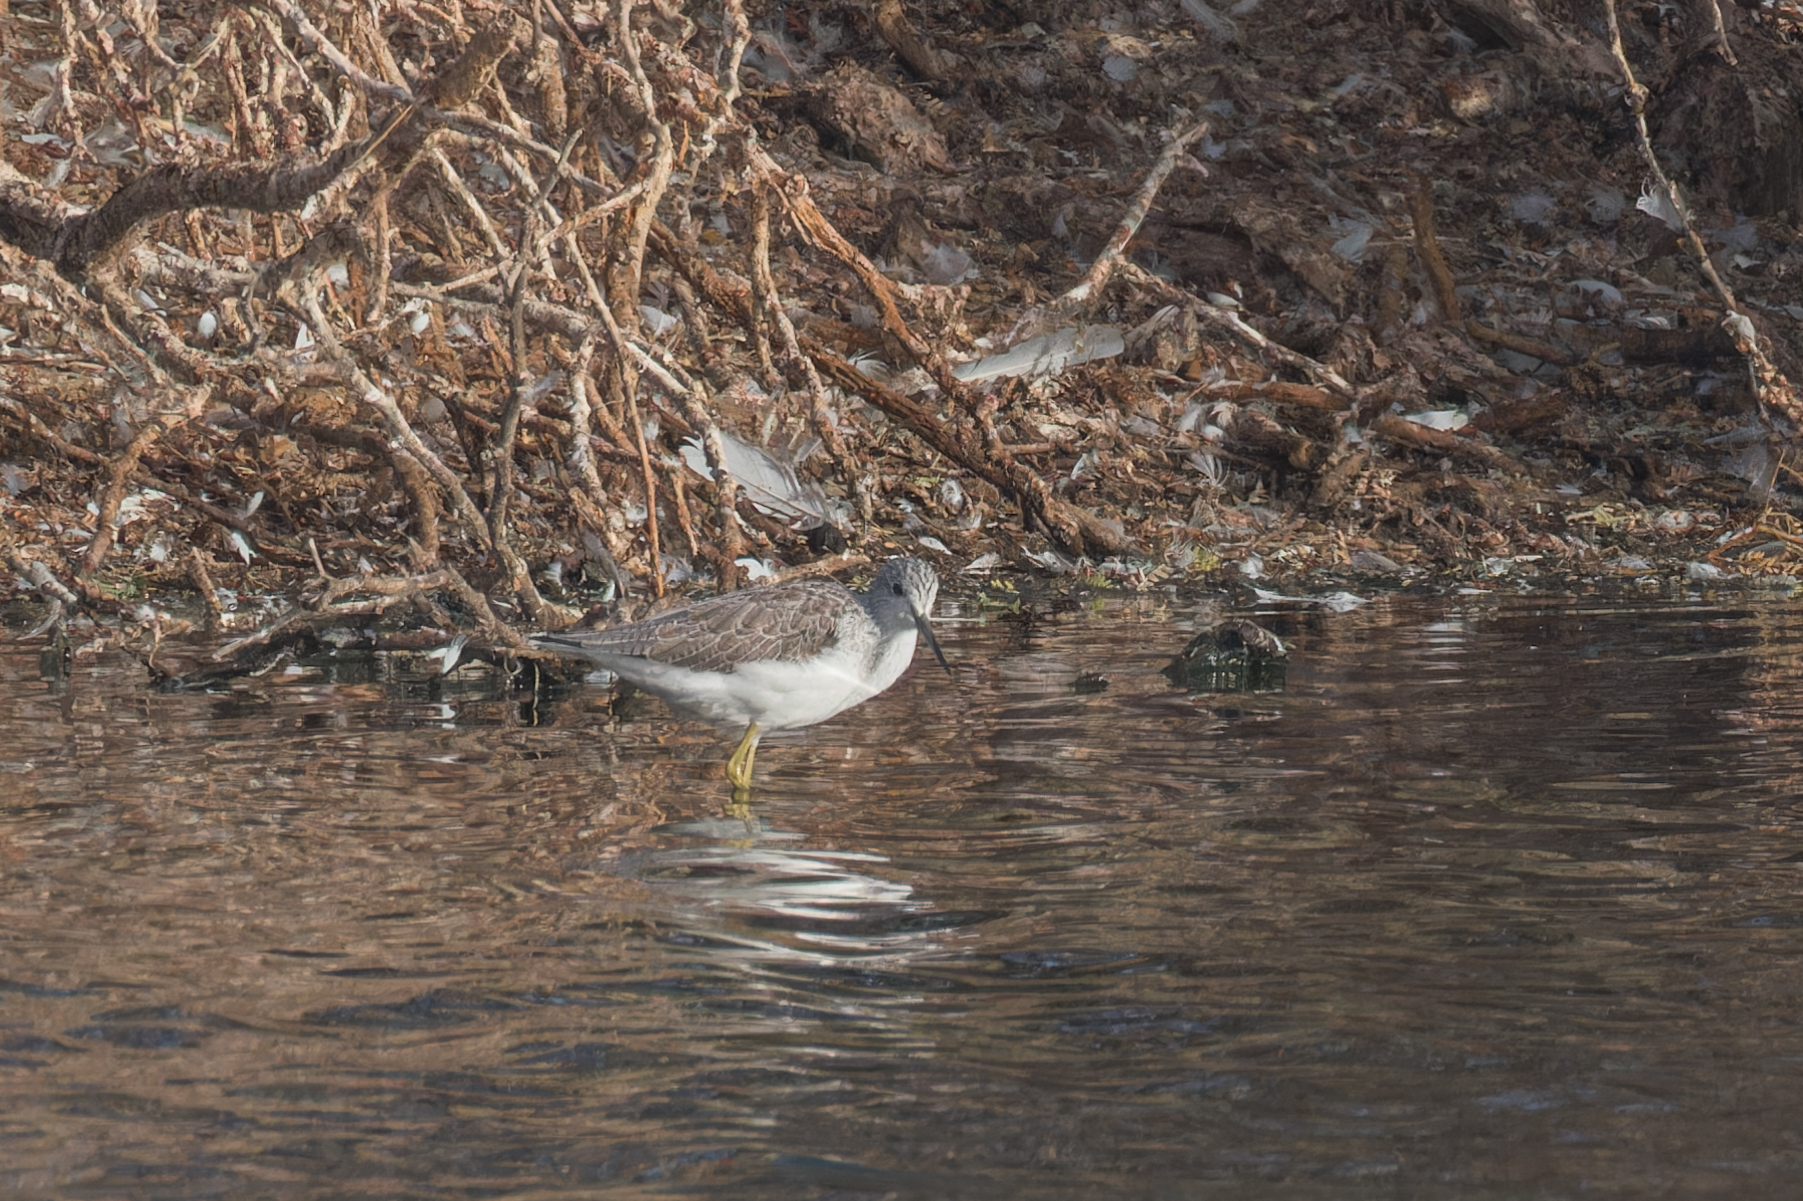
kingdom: Animalia
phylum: Chordata
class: Aves
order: Charadriiformes
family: Scolopacidae
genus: Tringa
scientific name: Tringa nebularia
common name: Common greenshank
